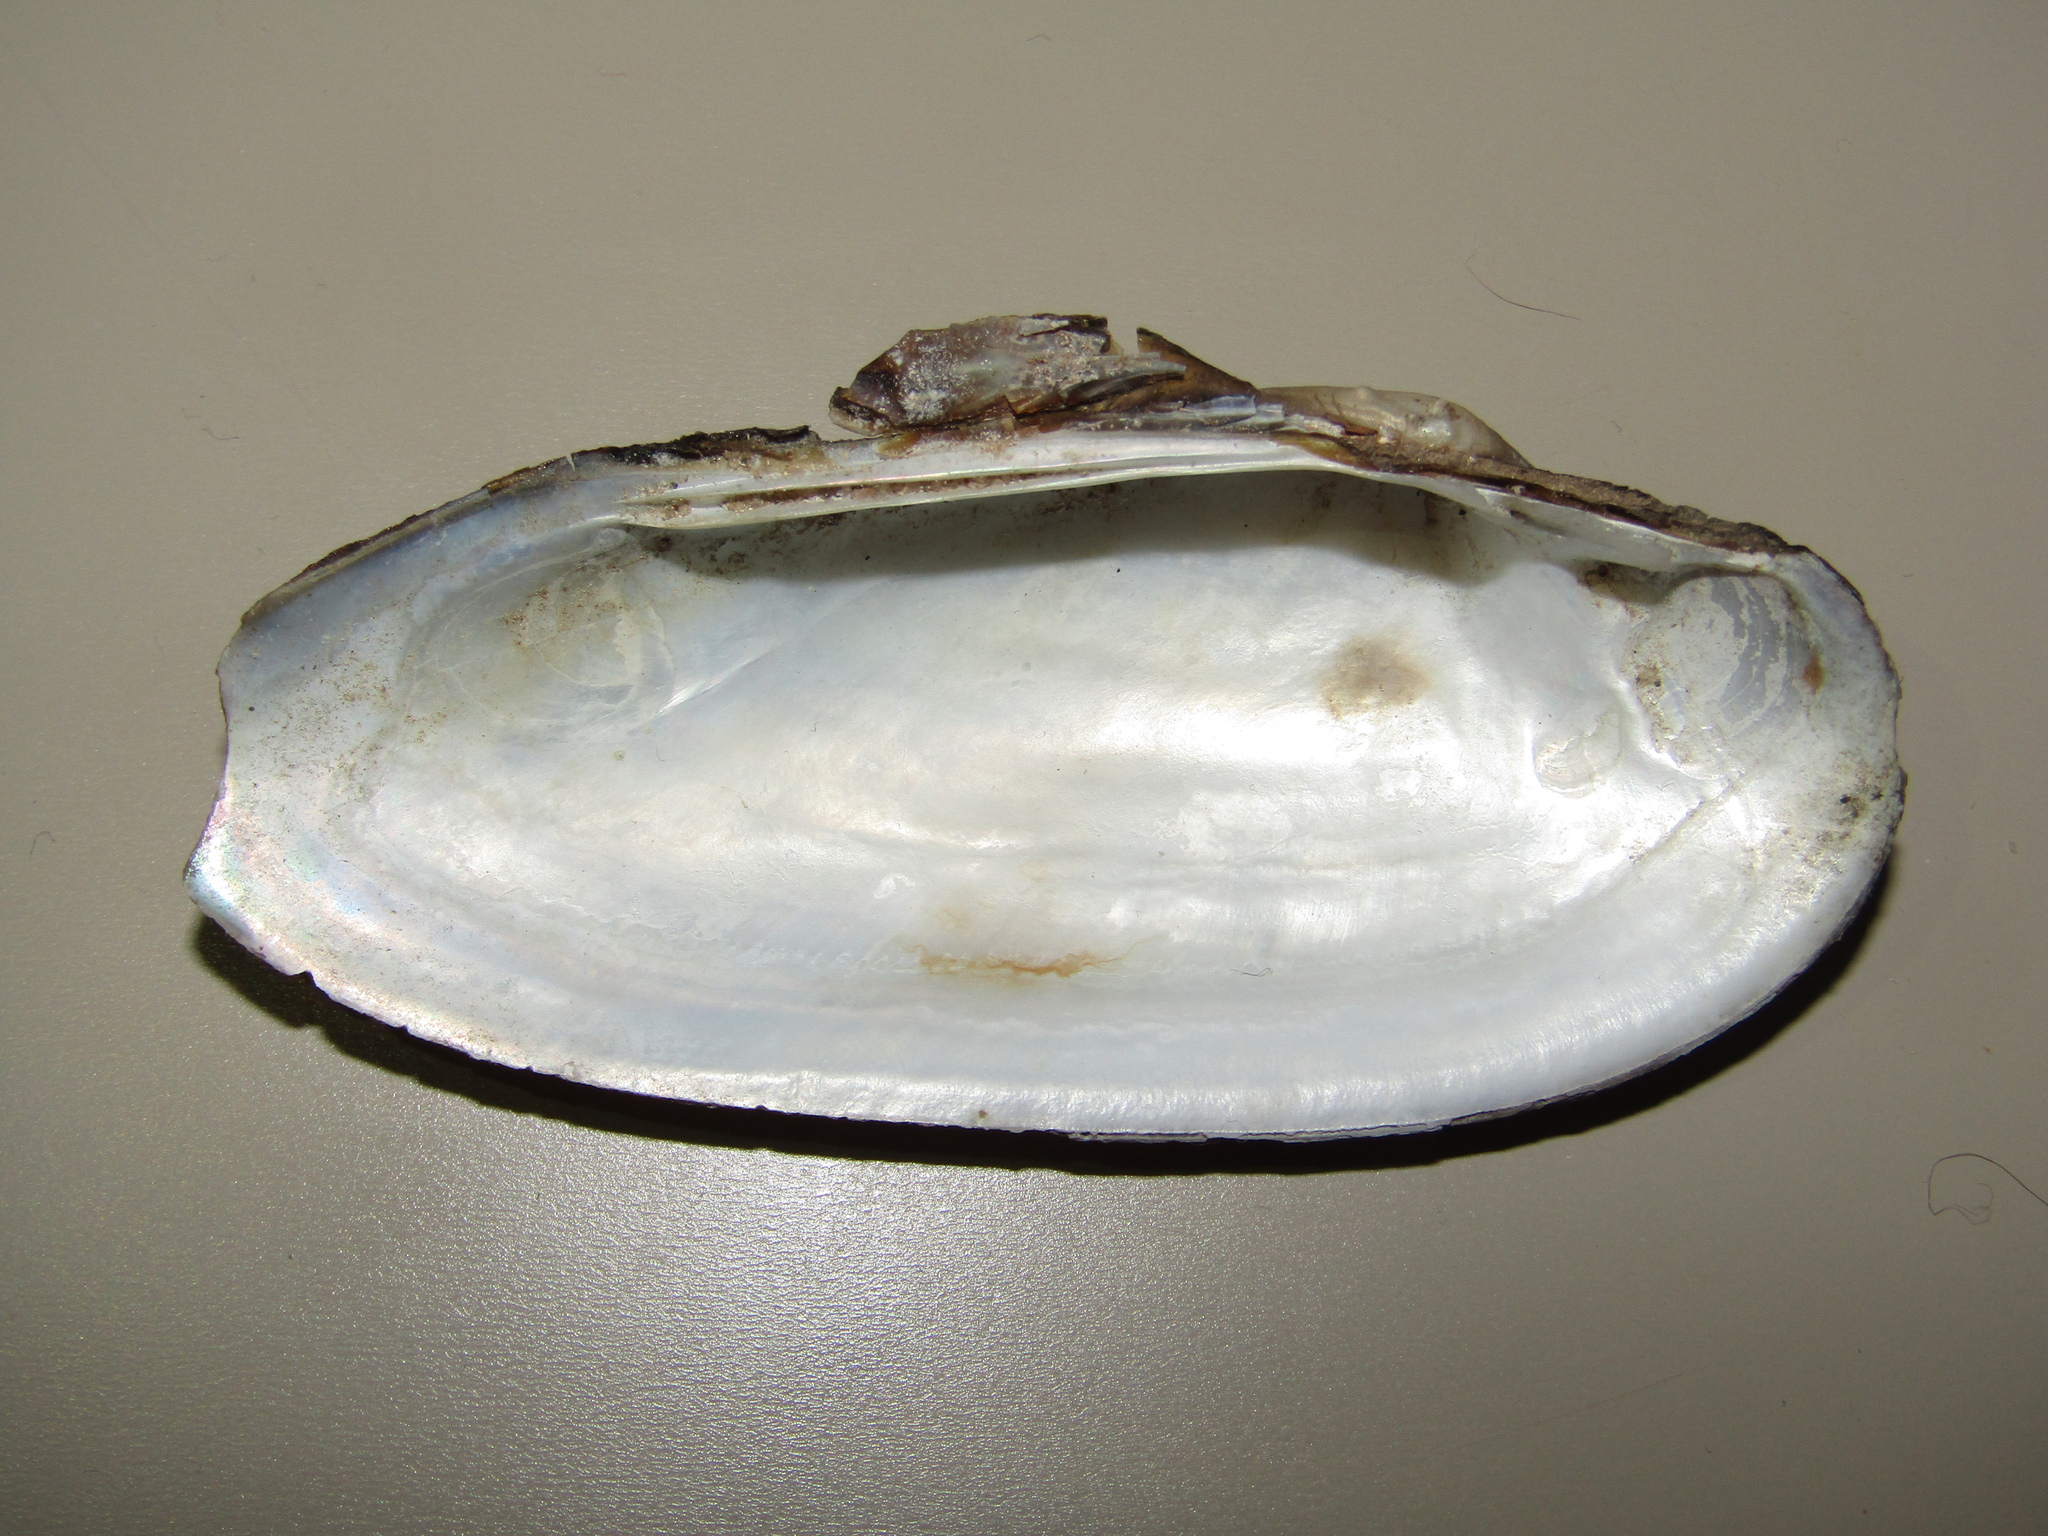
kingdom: Animalia
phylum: Mollusca
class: Bivalvia
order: Unionida
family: Unionidae
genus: Unio
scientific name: Unio pictorum
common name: Painter's mussel
